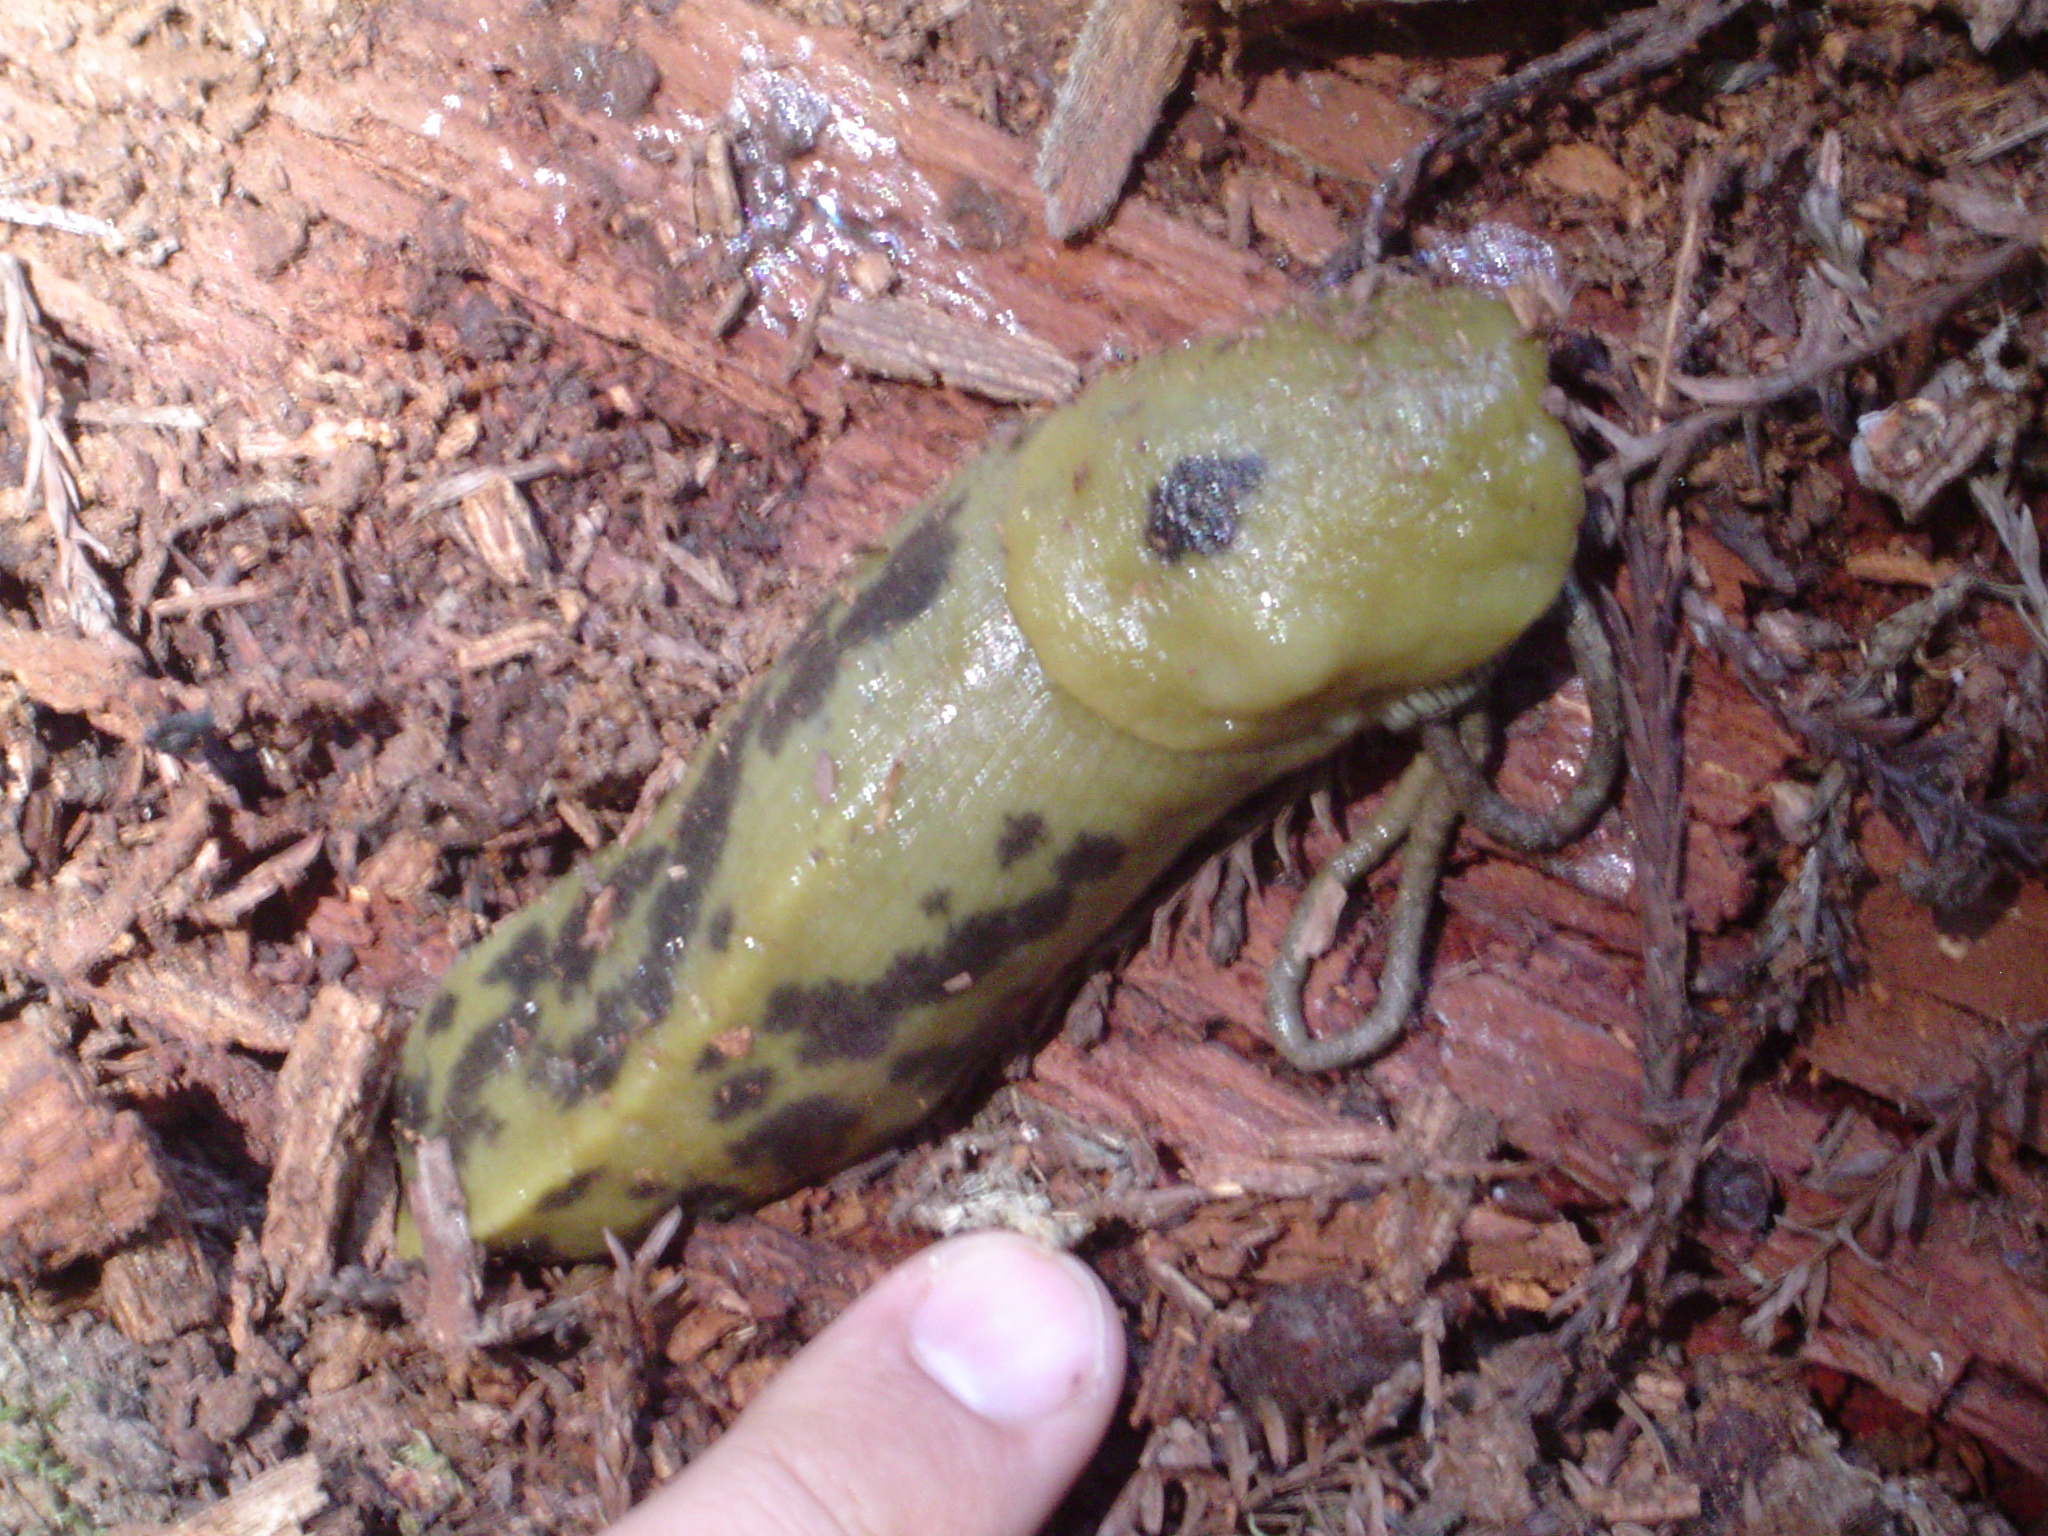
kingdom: Animalia
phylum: Mollusca
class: Gastropoda
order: Stylommatophora
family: Ariolimacidae
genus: Ariolimax
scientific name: Ariolimax buttoni
